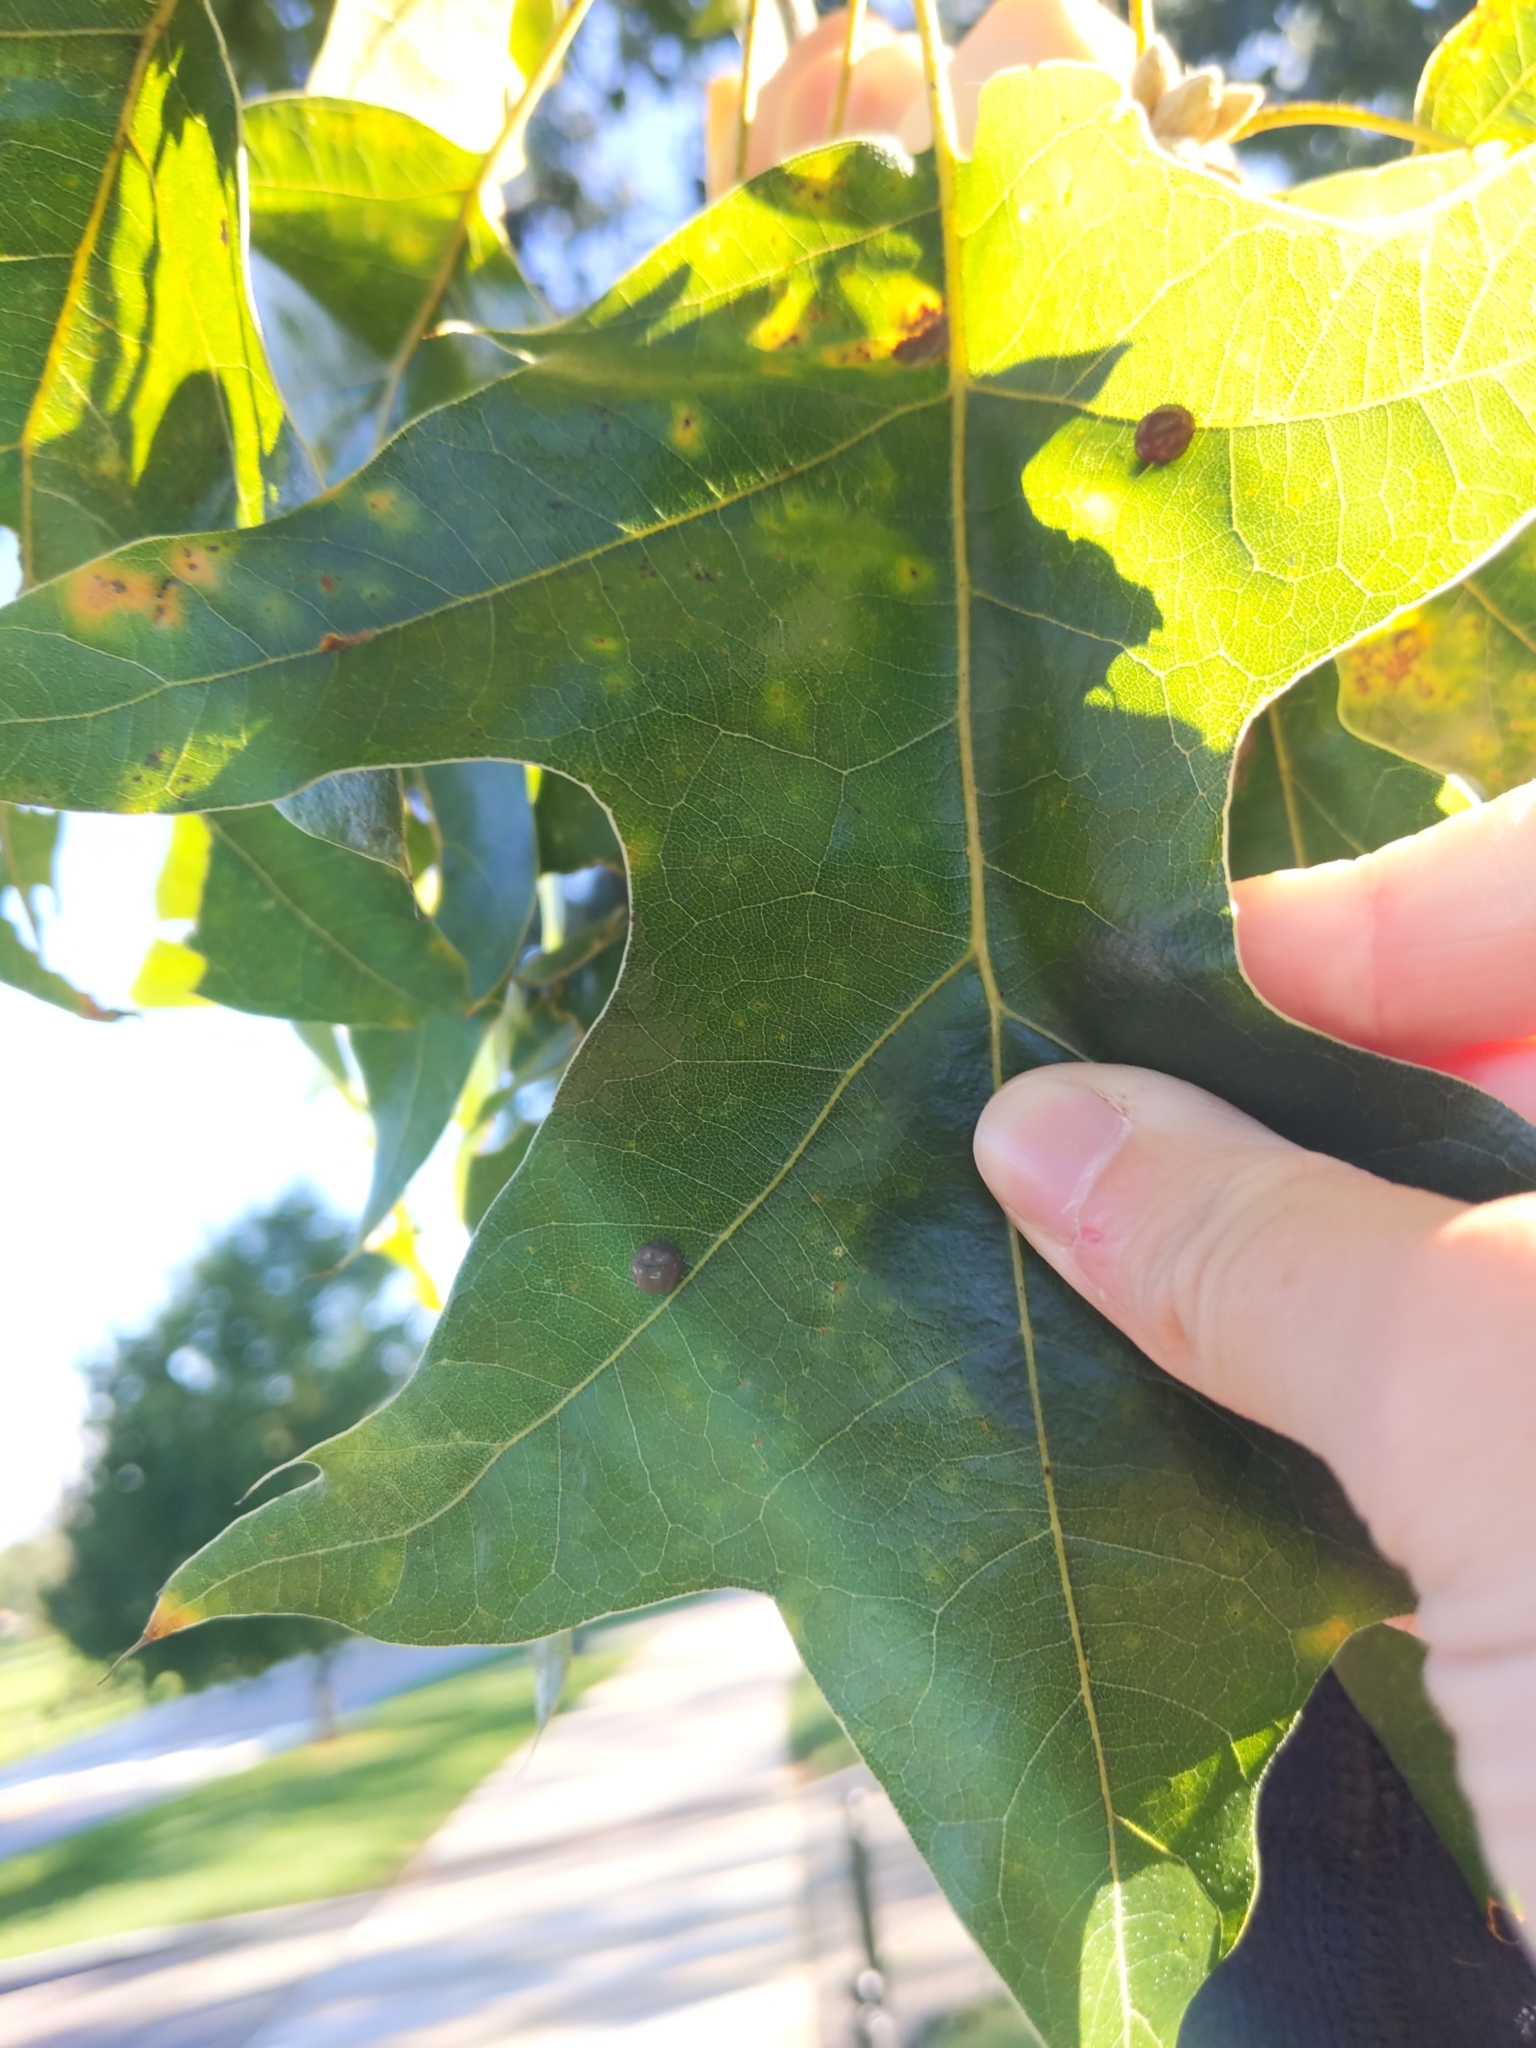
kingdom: Animalia
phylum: Arthropoda
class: Insecta
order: Diptera
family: Cecidomyiidae
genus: Polystepha
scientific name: Polystepha pilulae
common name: Oak leaf gall midge
